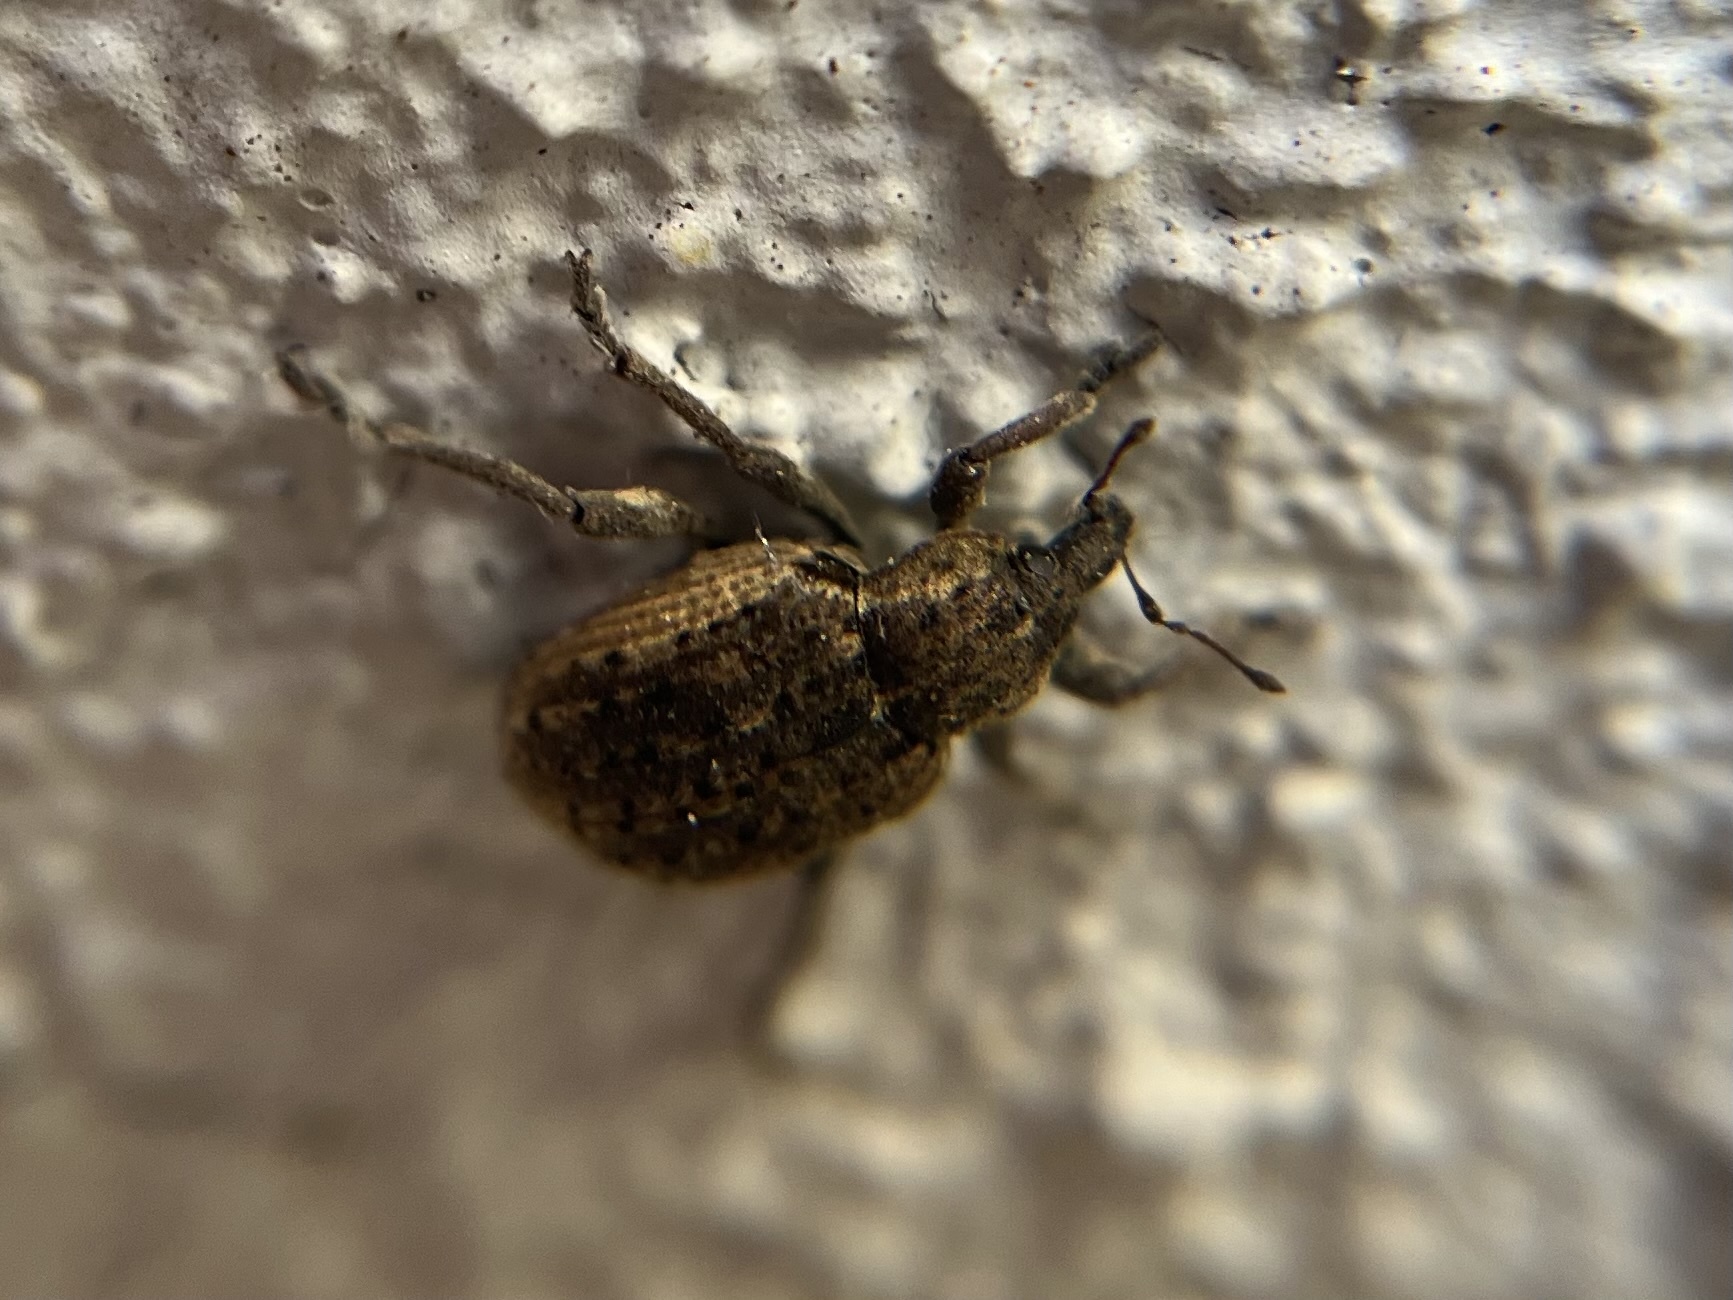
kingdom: Animalia
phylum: Arthropoda
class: Insecta
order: Coleoptera
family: Curculionidae
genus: Brachypera
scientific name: Brachypera zoilus
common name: Clover leaf weevil
